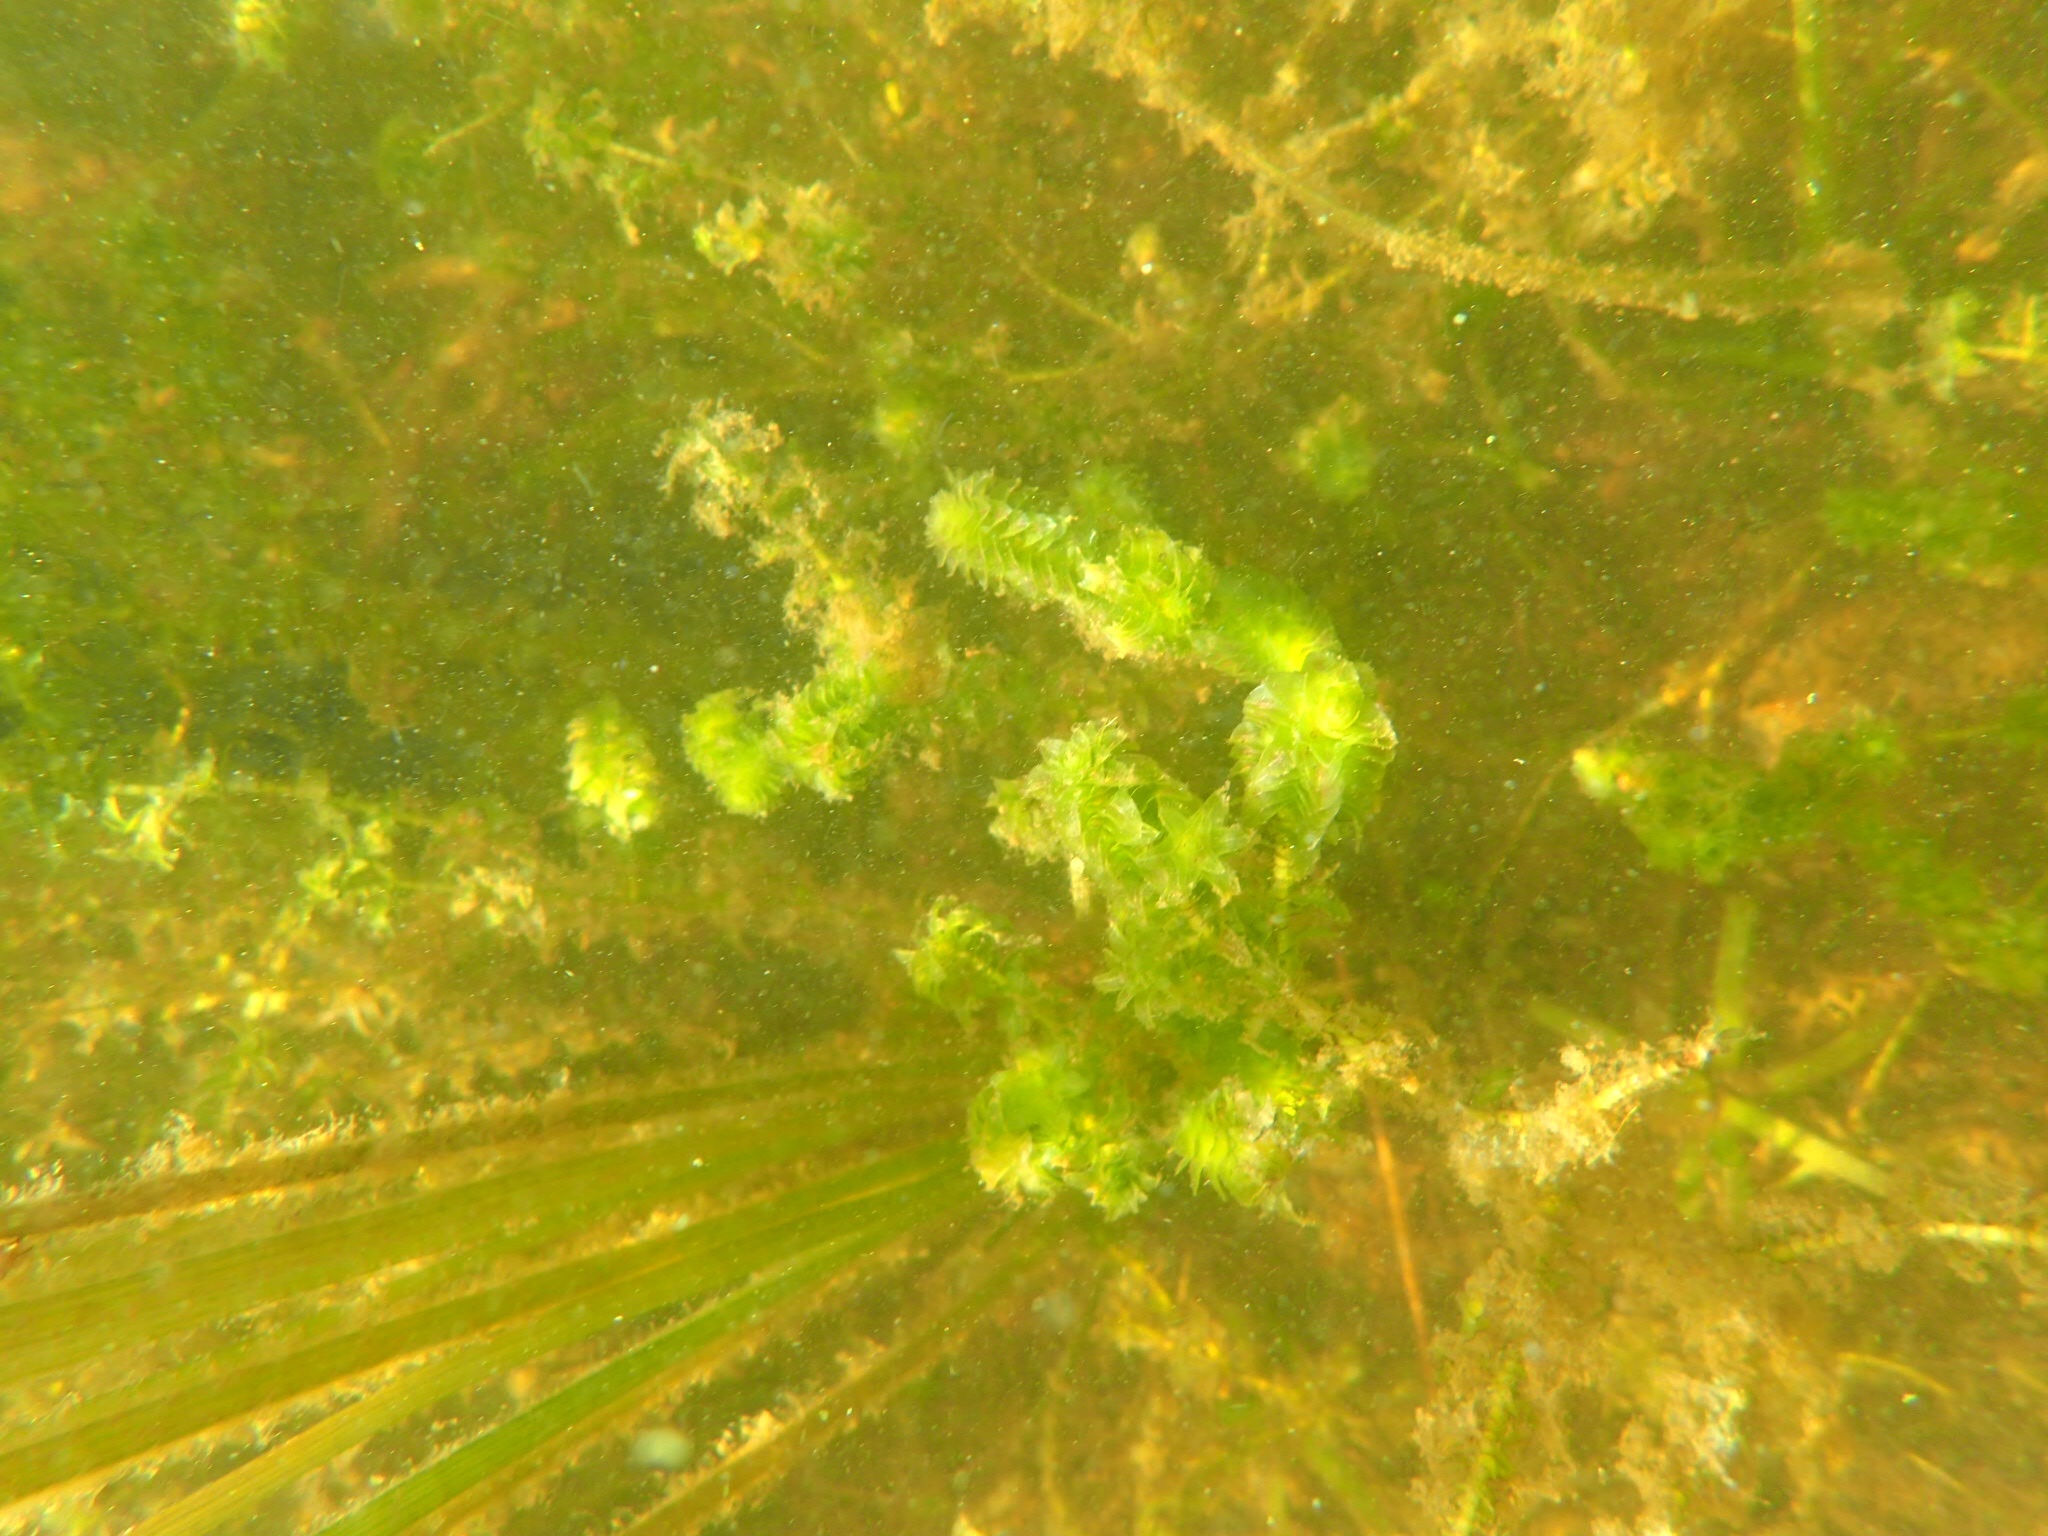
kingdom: Plantae
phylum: Tracheophyta
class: Liliopsida
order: Alismatales
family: Hydrocharitaceae
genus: Elodea
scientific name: Elodea canadensis
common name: Canadian waterweed
